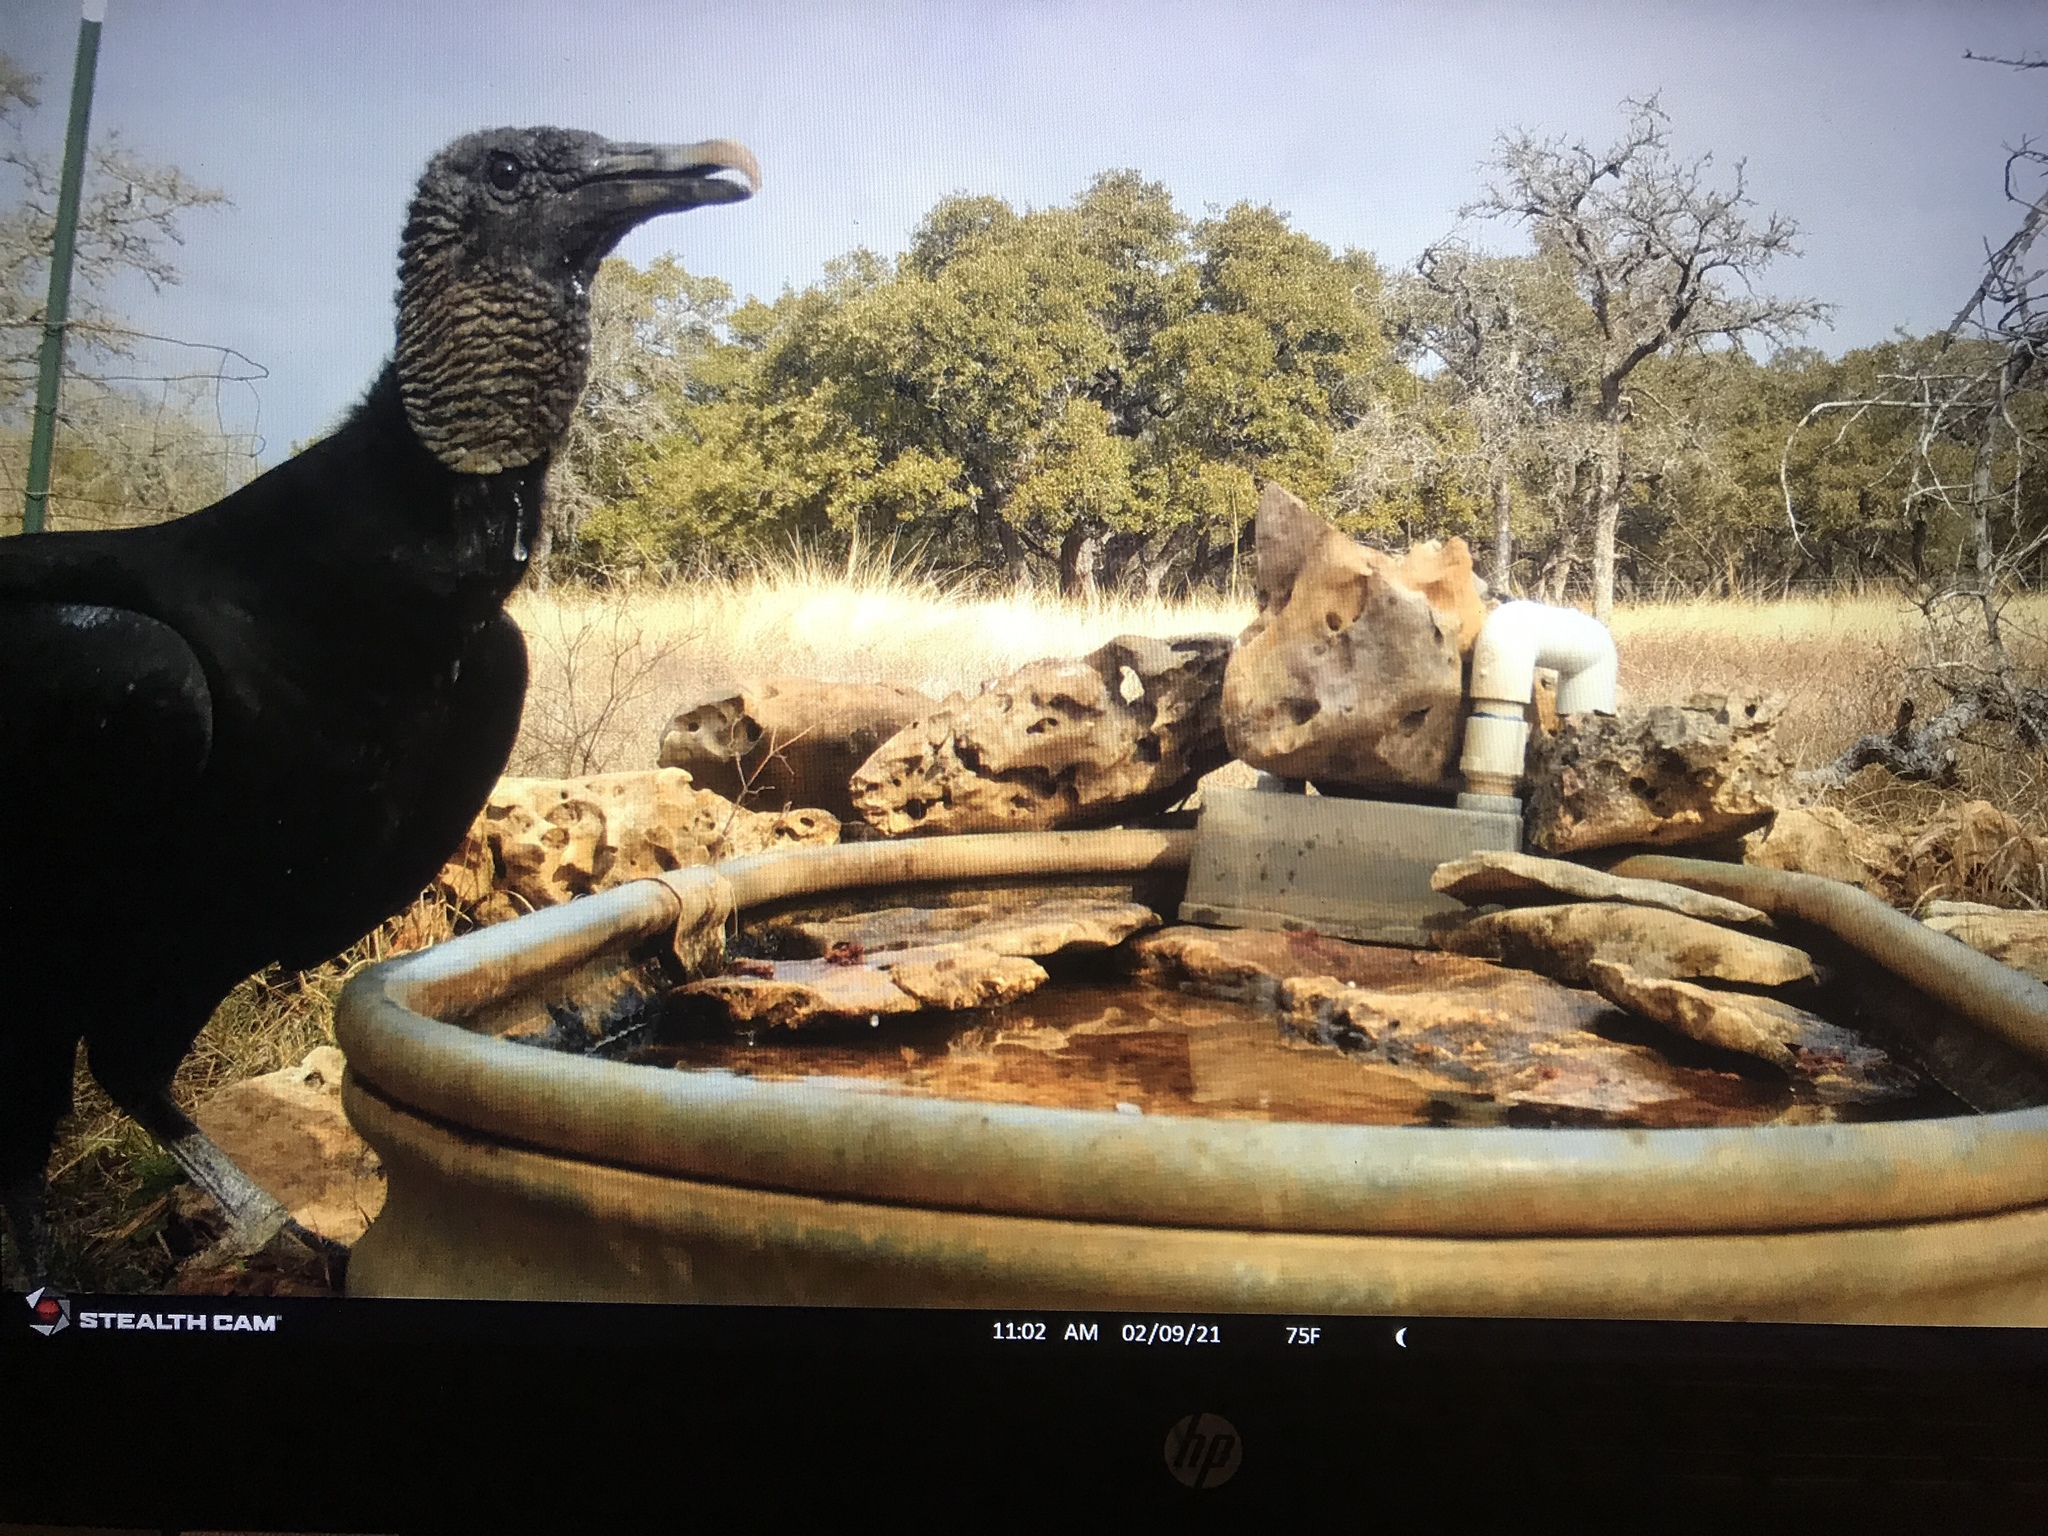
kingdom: Animalia
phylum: Chordata
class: Aves
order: Accipitriformes
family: Cathartidae
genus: Coragyps
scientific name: Coragyps atratus
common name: Black vulture
